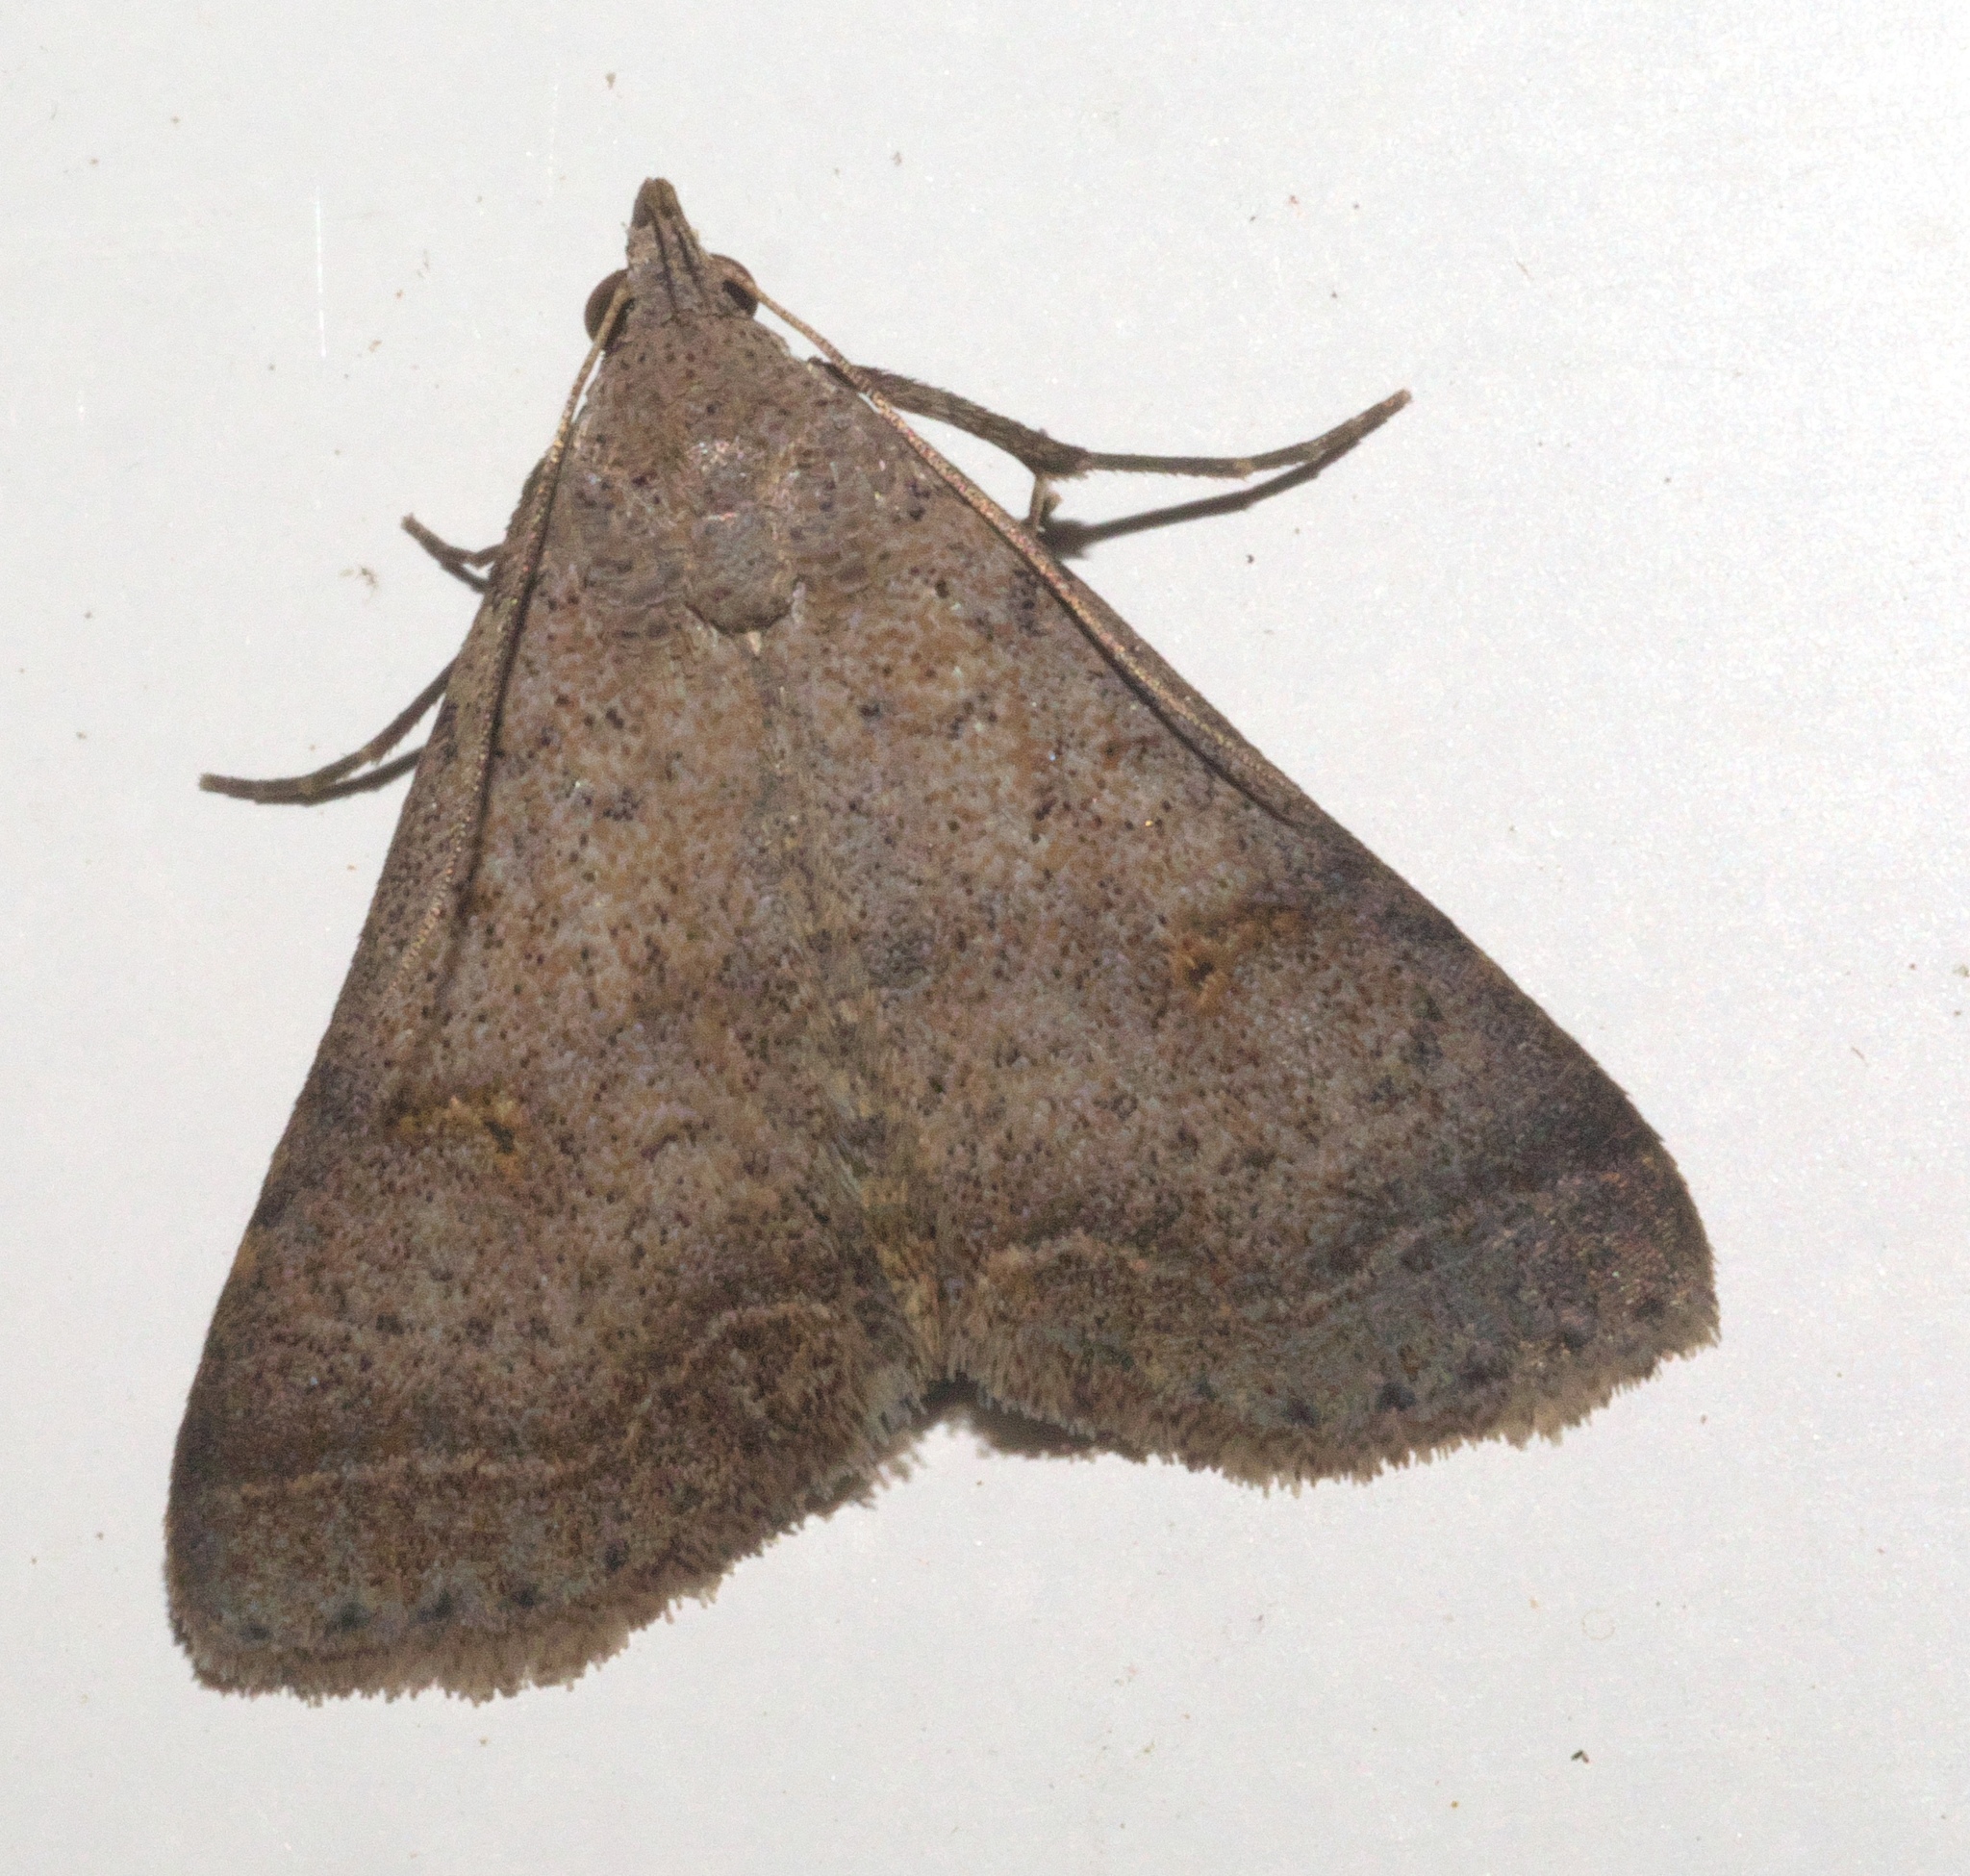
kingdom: Animalia
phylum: Arthropoda
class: Insecta
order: Lepidoptera
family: Erebidae
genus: Bleptina
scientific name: Bleptina caradrinalis
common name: Bent-winged owlet
